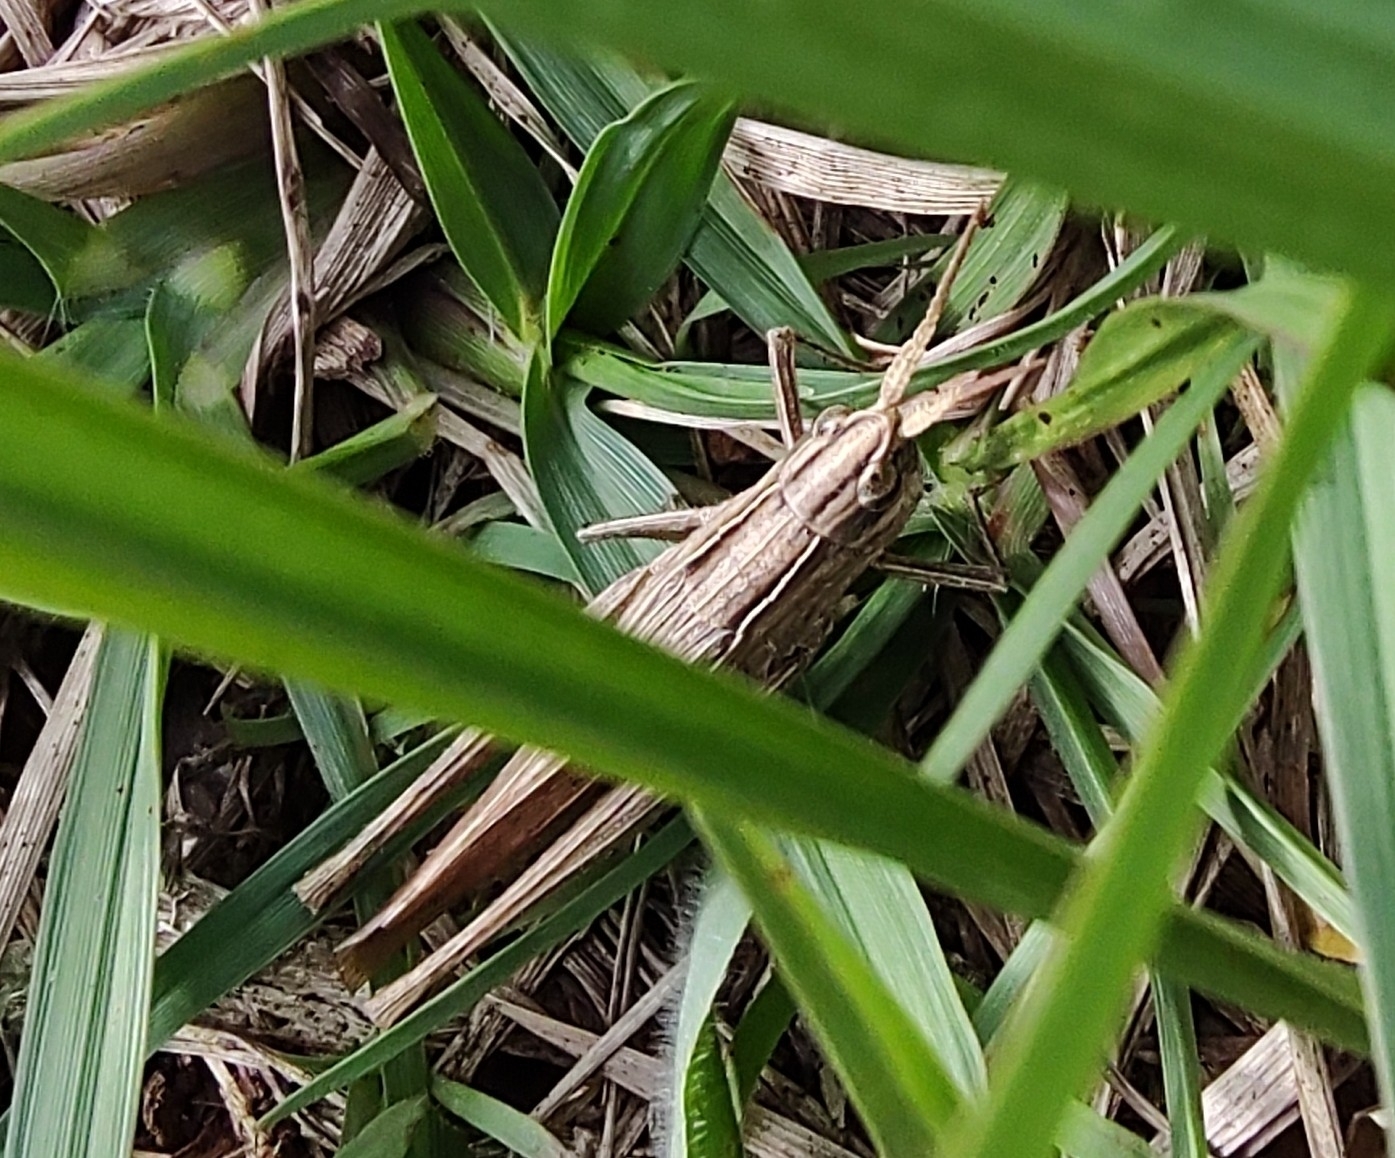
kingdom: Animalia
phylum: Arthropoda
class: Insecta
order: Orthoptera
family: Acrididae
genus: Eutryxalis
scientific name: Eutryxalis filata
